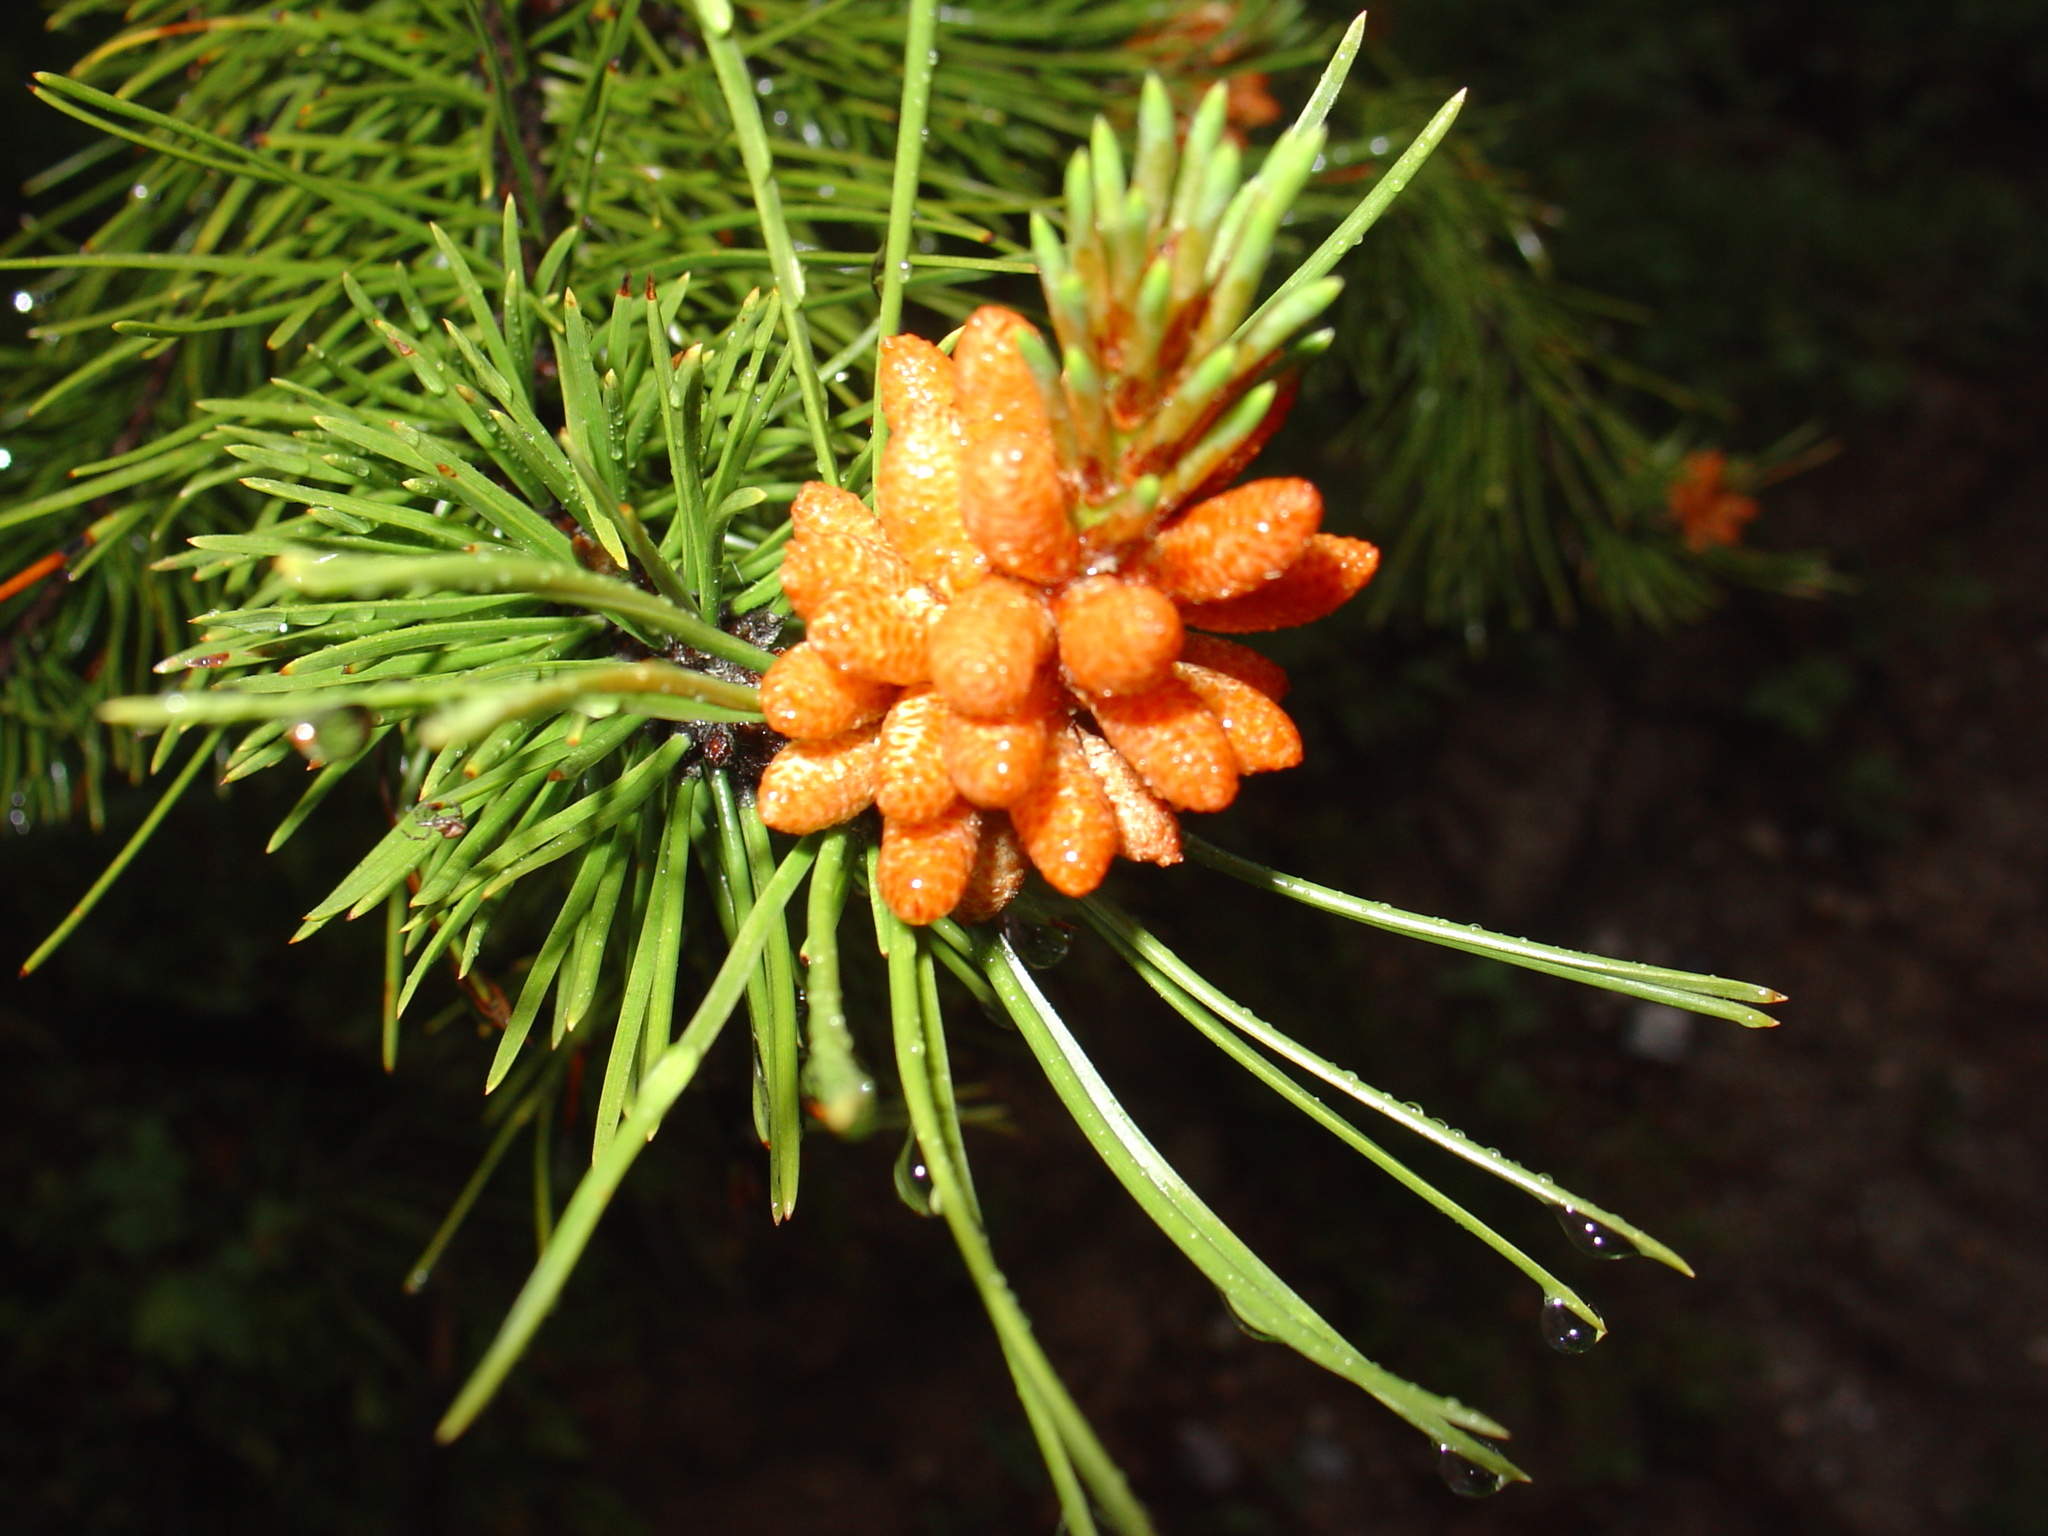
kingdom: Plantae
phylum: Tracheophyta
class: Pinopsida
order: Pinales
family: Pinaceae
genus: Pinus
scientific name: Pinus contorta
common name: Lodgepole pine
